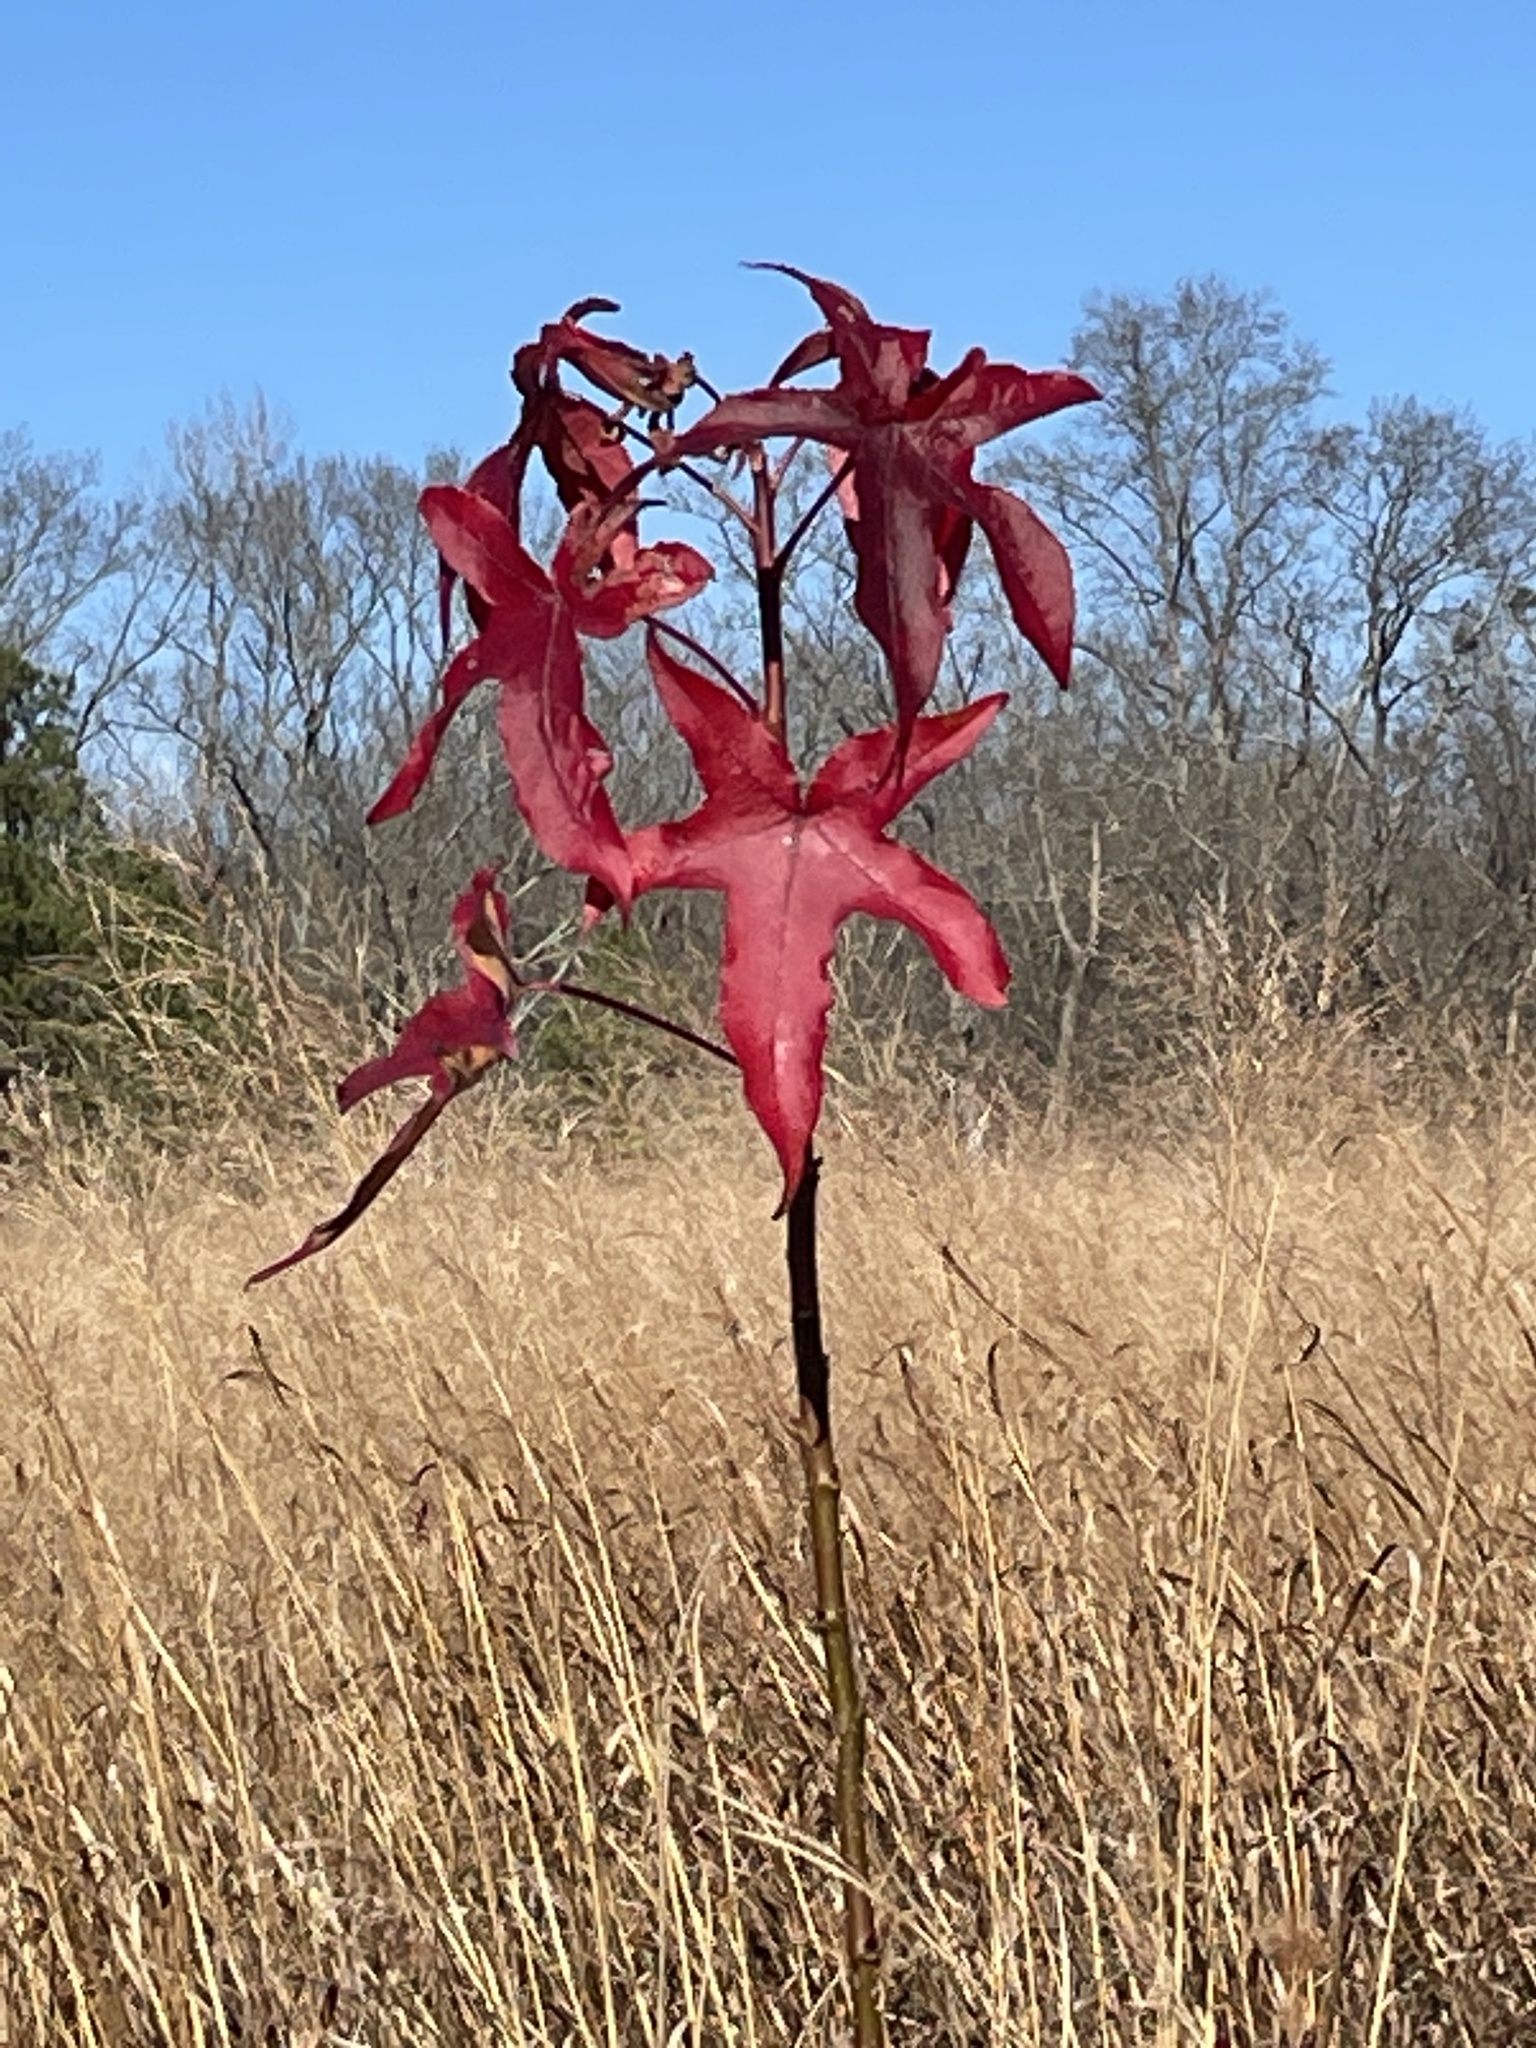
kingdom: Plantae
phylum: Tracheophyta
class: Magnoliopsida
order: Saxifragales
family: Altingiaceae
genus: Liquidambar
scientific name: Liquidambar styraciflua
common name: Sweet gum
